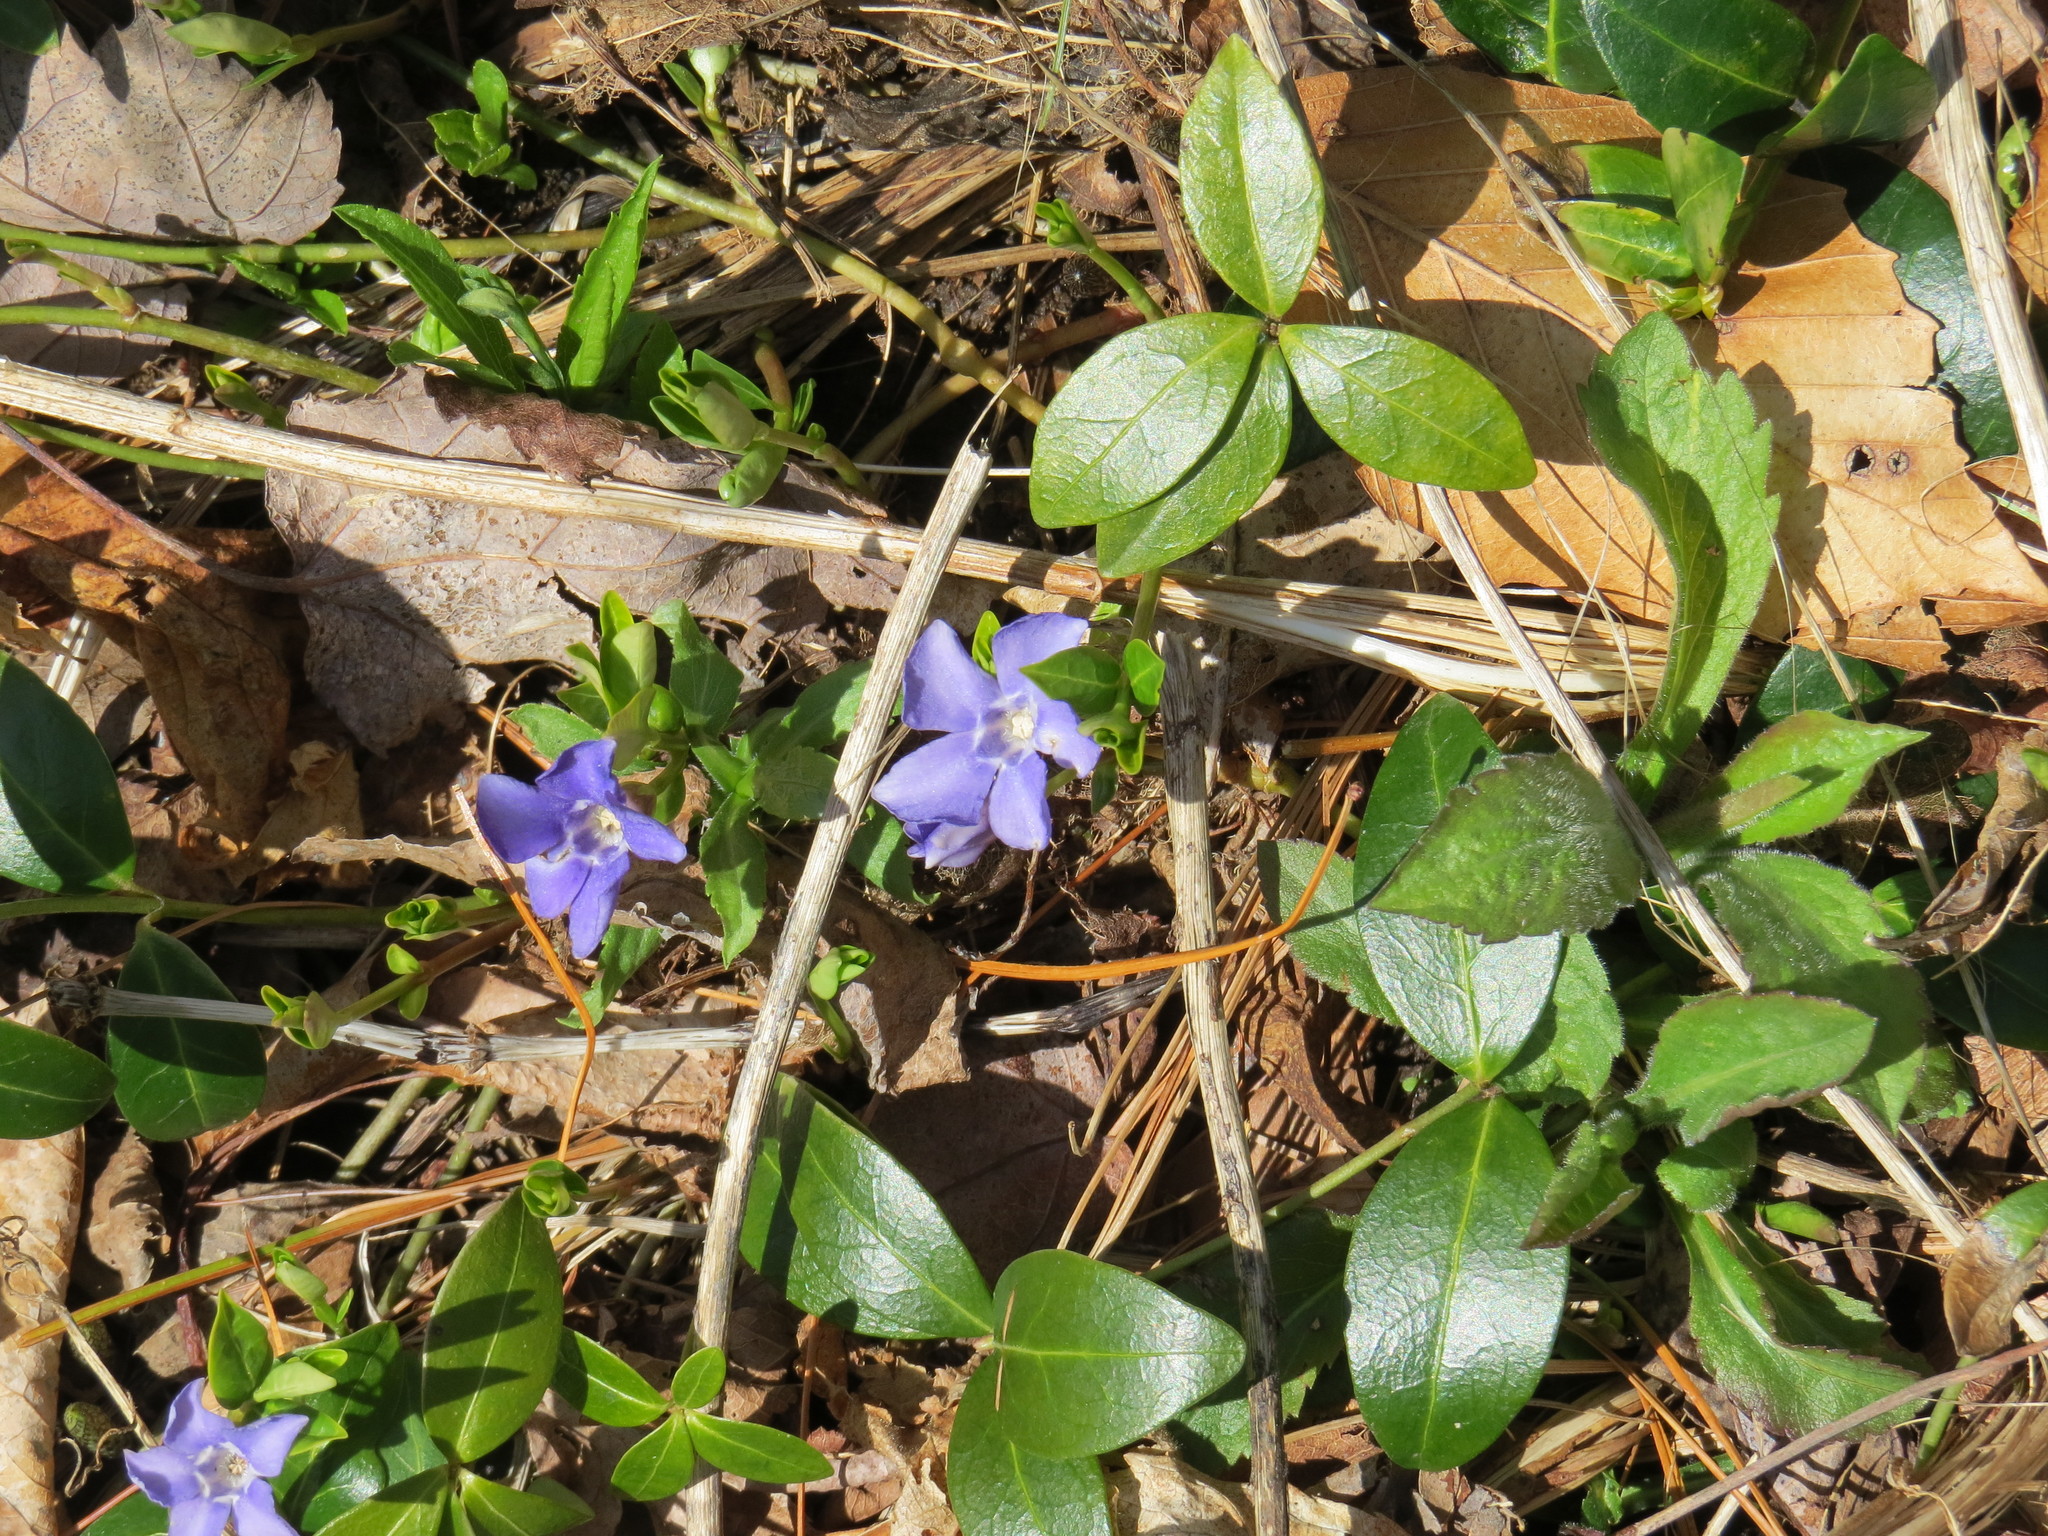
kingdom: Plantae
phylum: Tracheophyta
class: Magnoliopsida
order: Gentianales
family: Apocynaceae
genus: Vinca
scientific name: Vinca minor
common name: Lesser periwinkle
